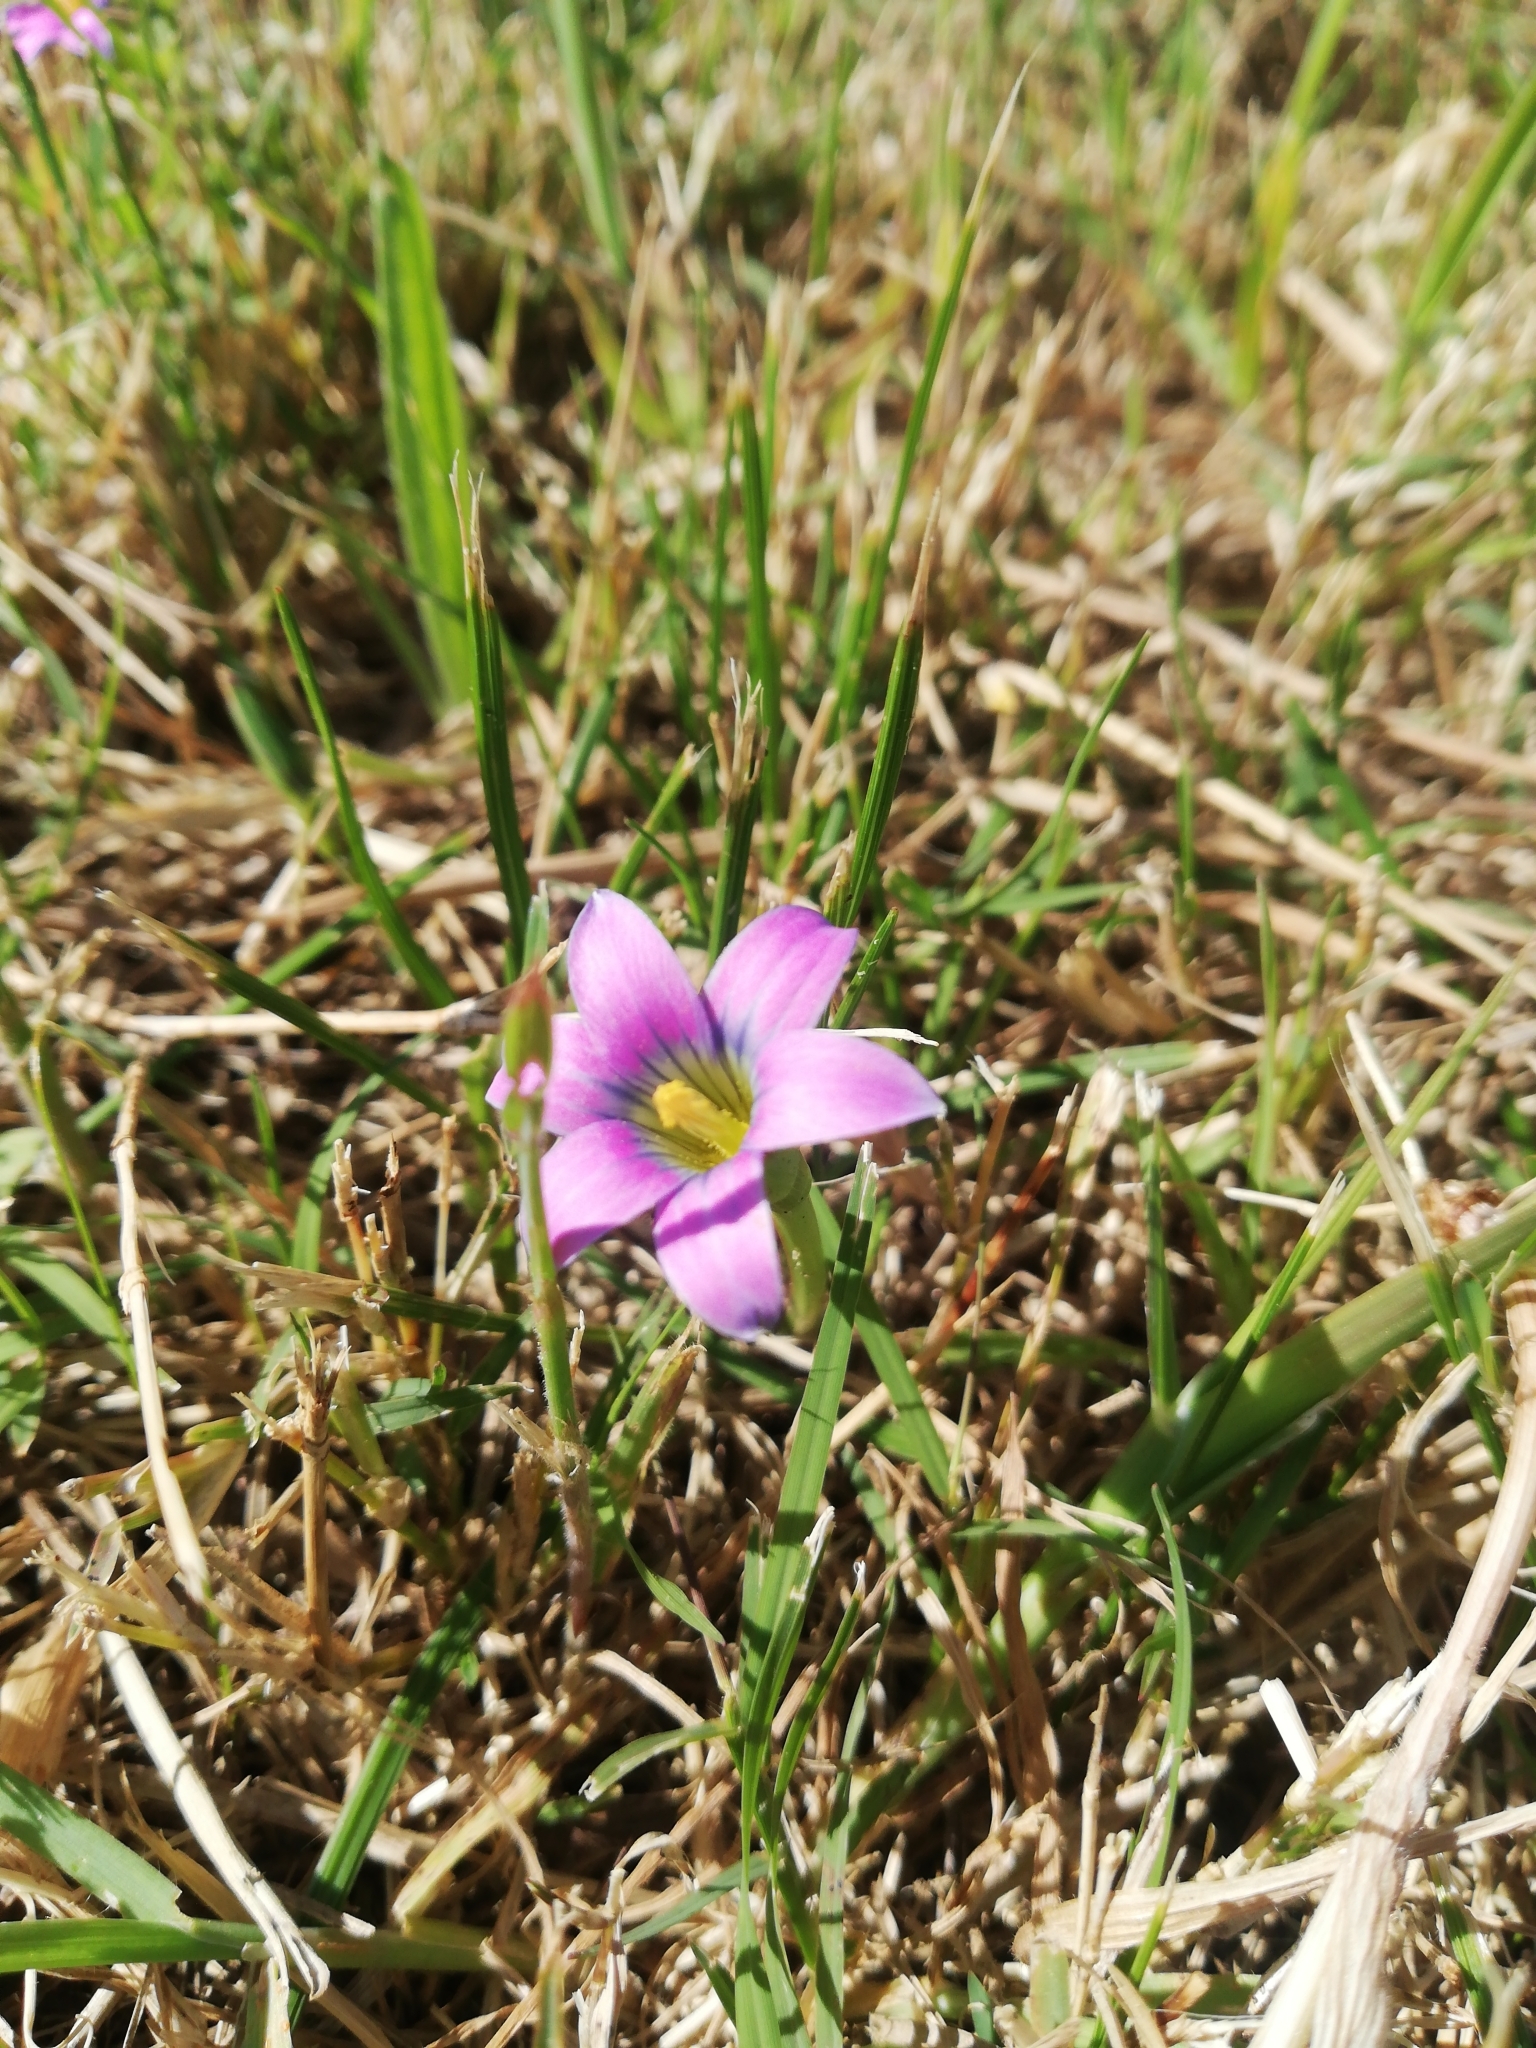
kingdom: Plantae
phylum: Tracheophyta
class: Liliopsida
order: Asparagales
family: Iridaceae
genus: Romulea
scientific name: Romulea rosea
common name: Oniongrass
